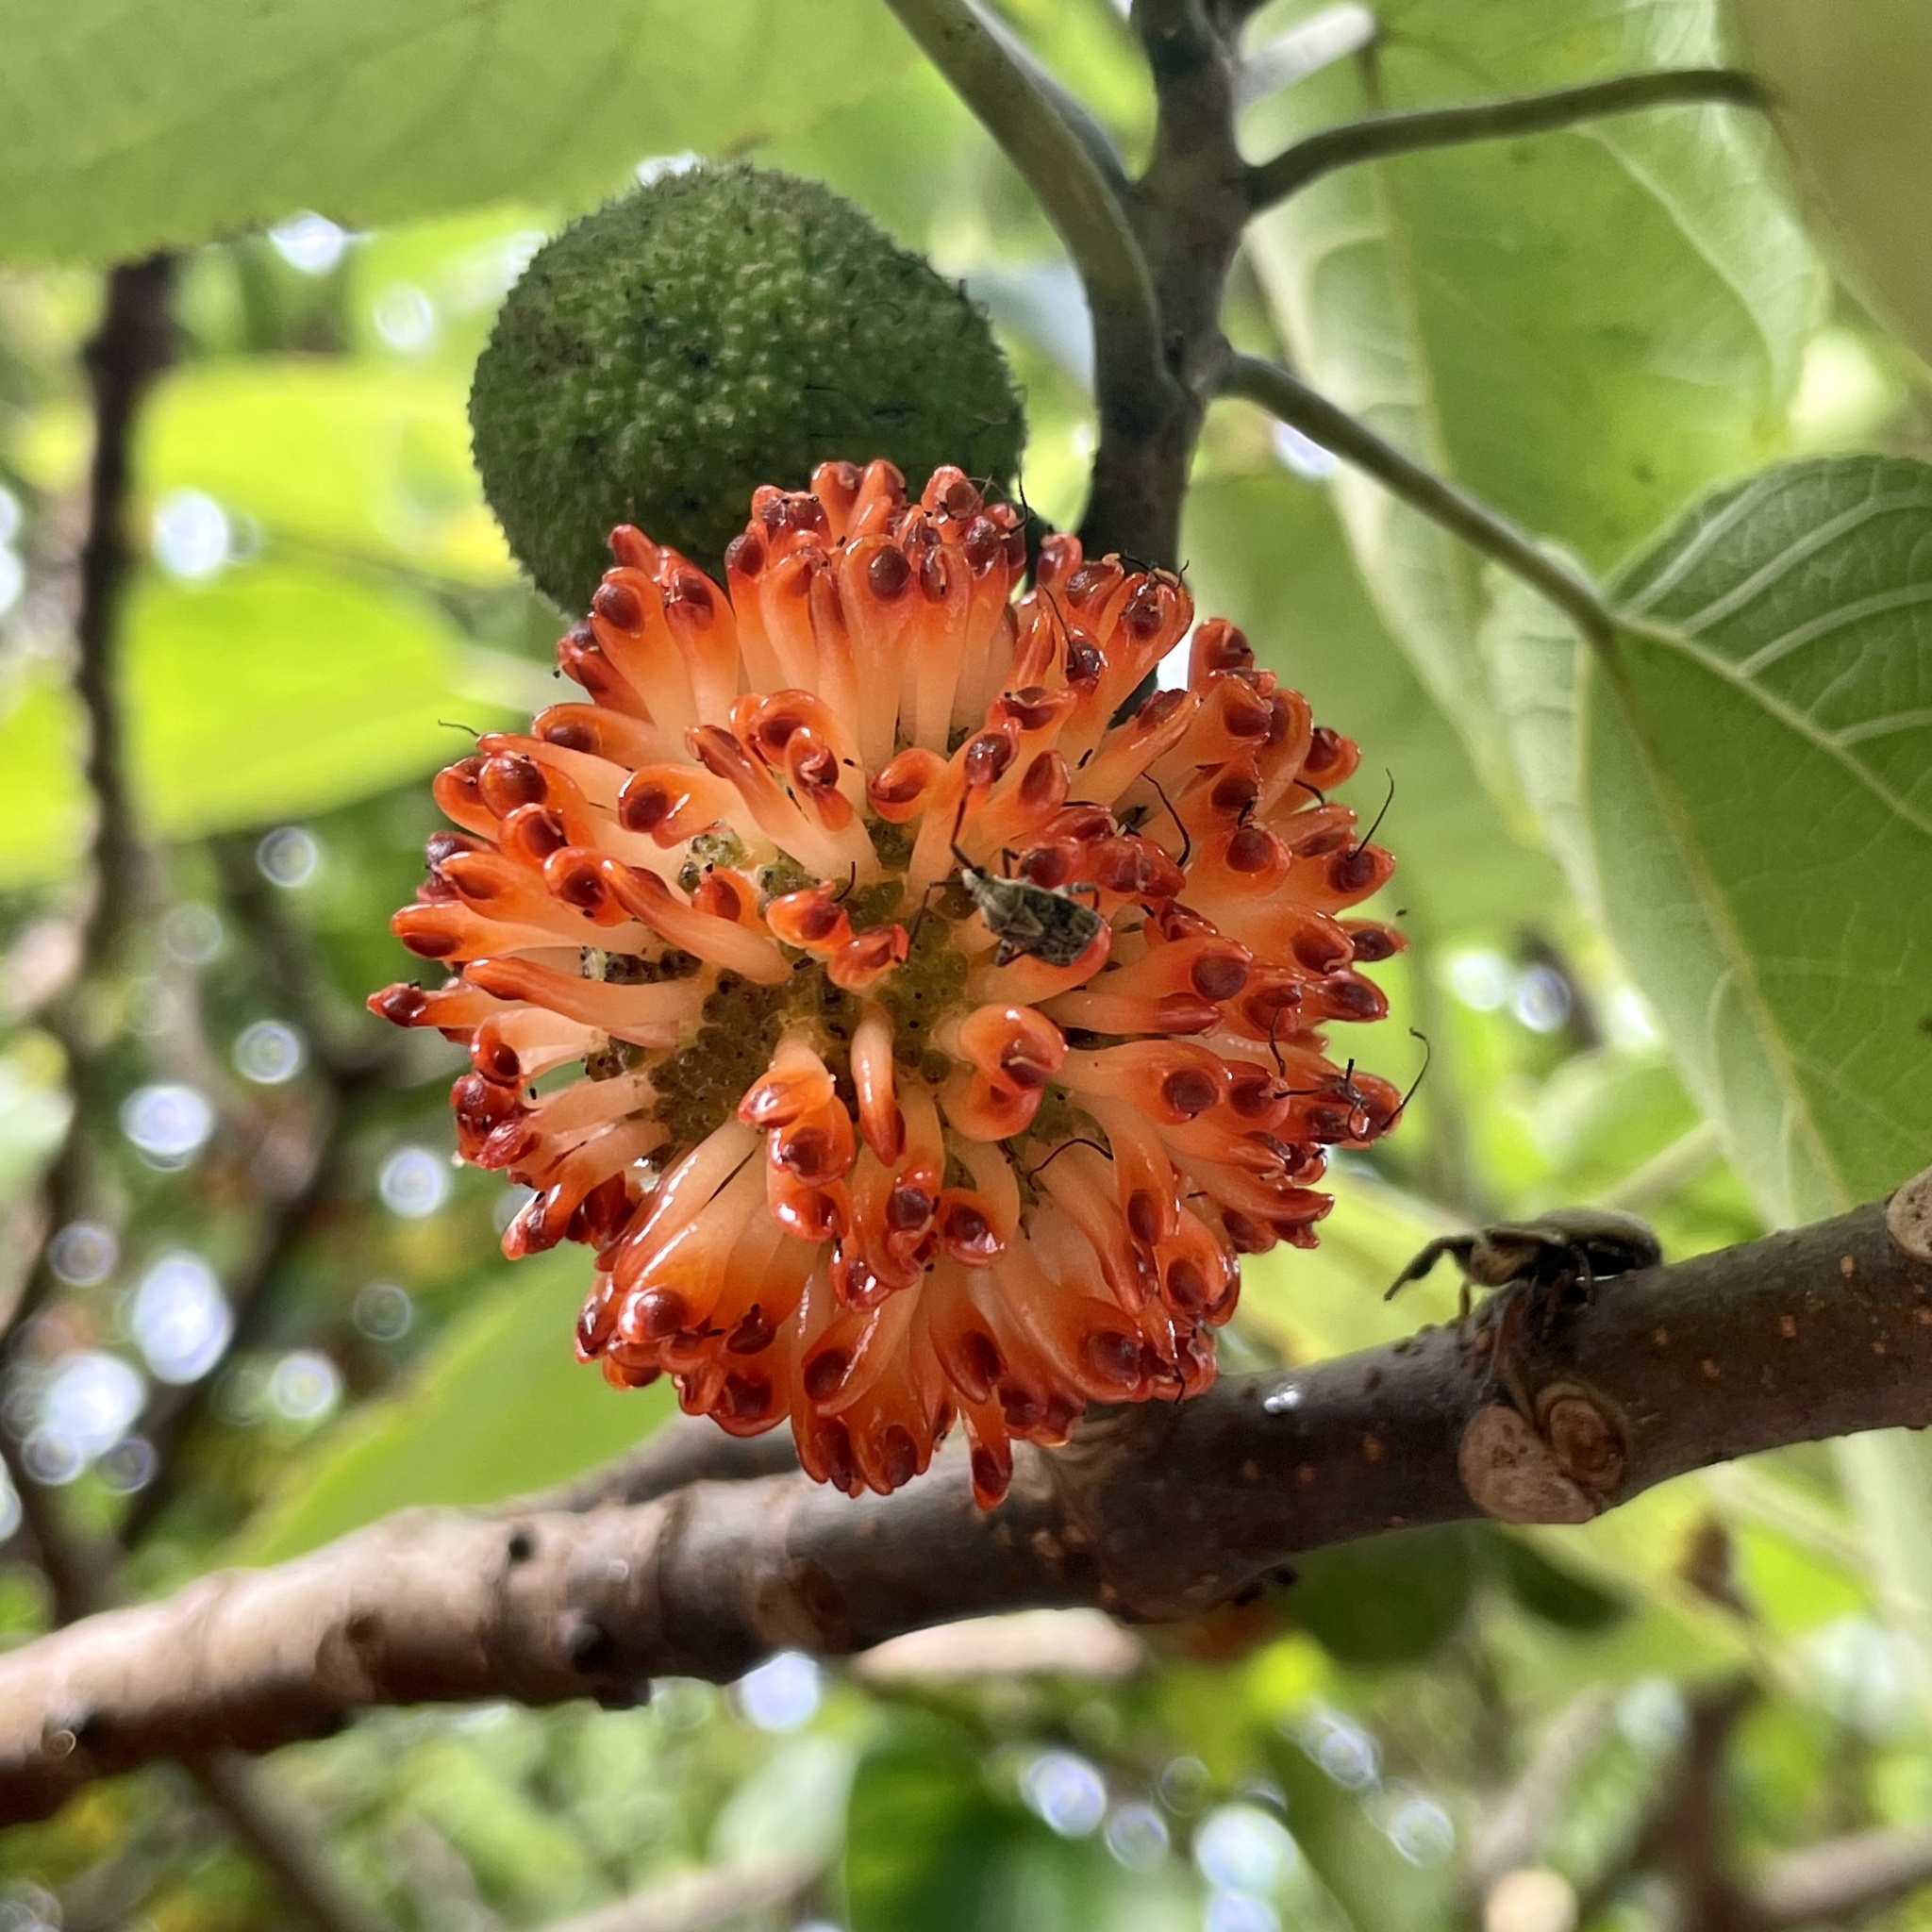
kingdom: Animalia
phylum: Arthropoda
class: Insecta
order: Hemiptera
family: Miridae
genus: Eurystylus
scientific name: Eurystylus ryukyus
